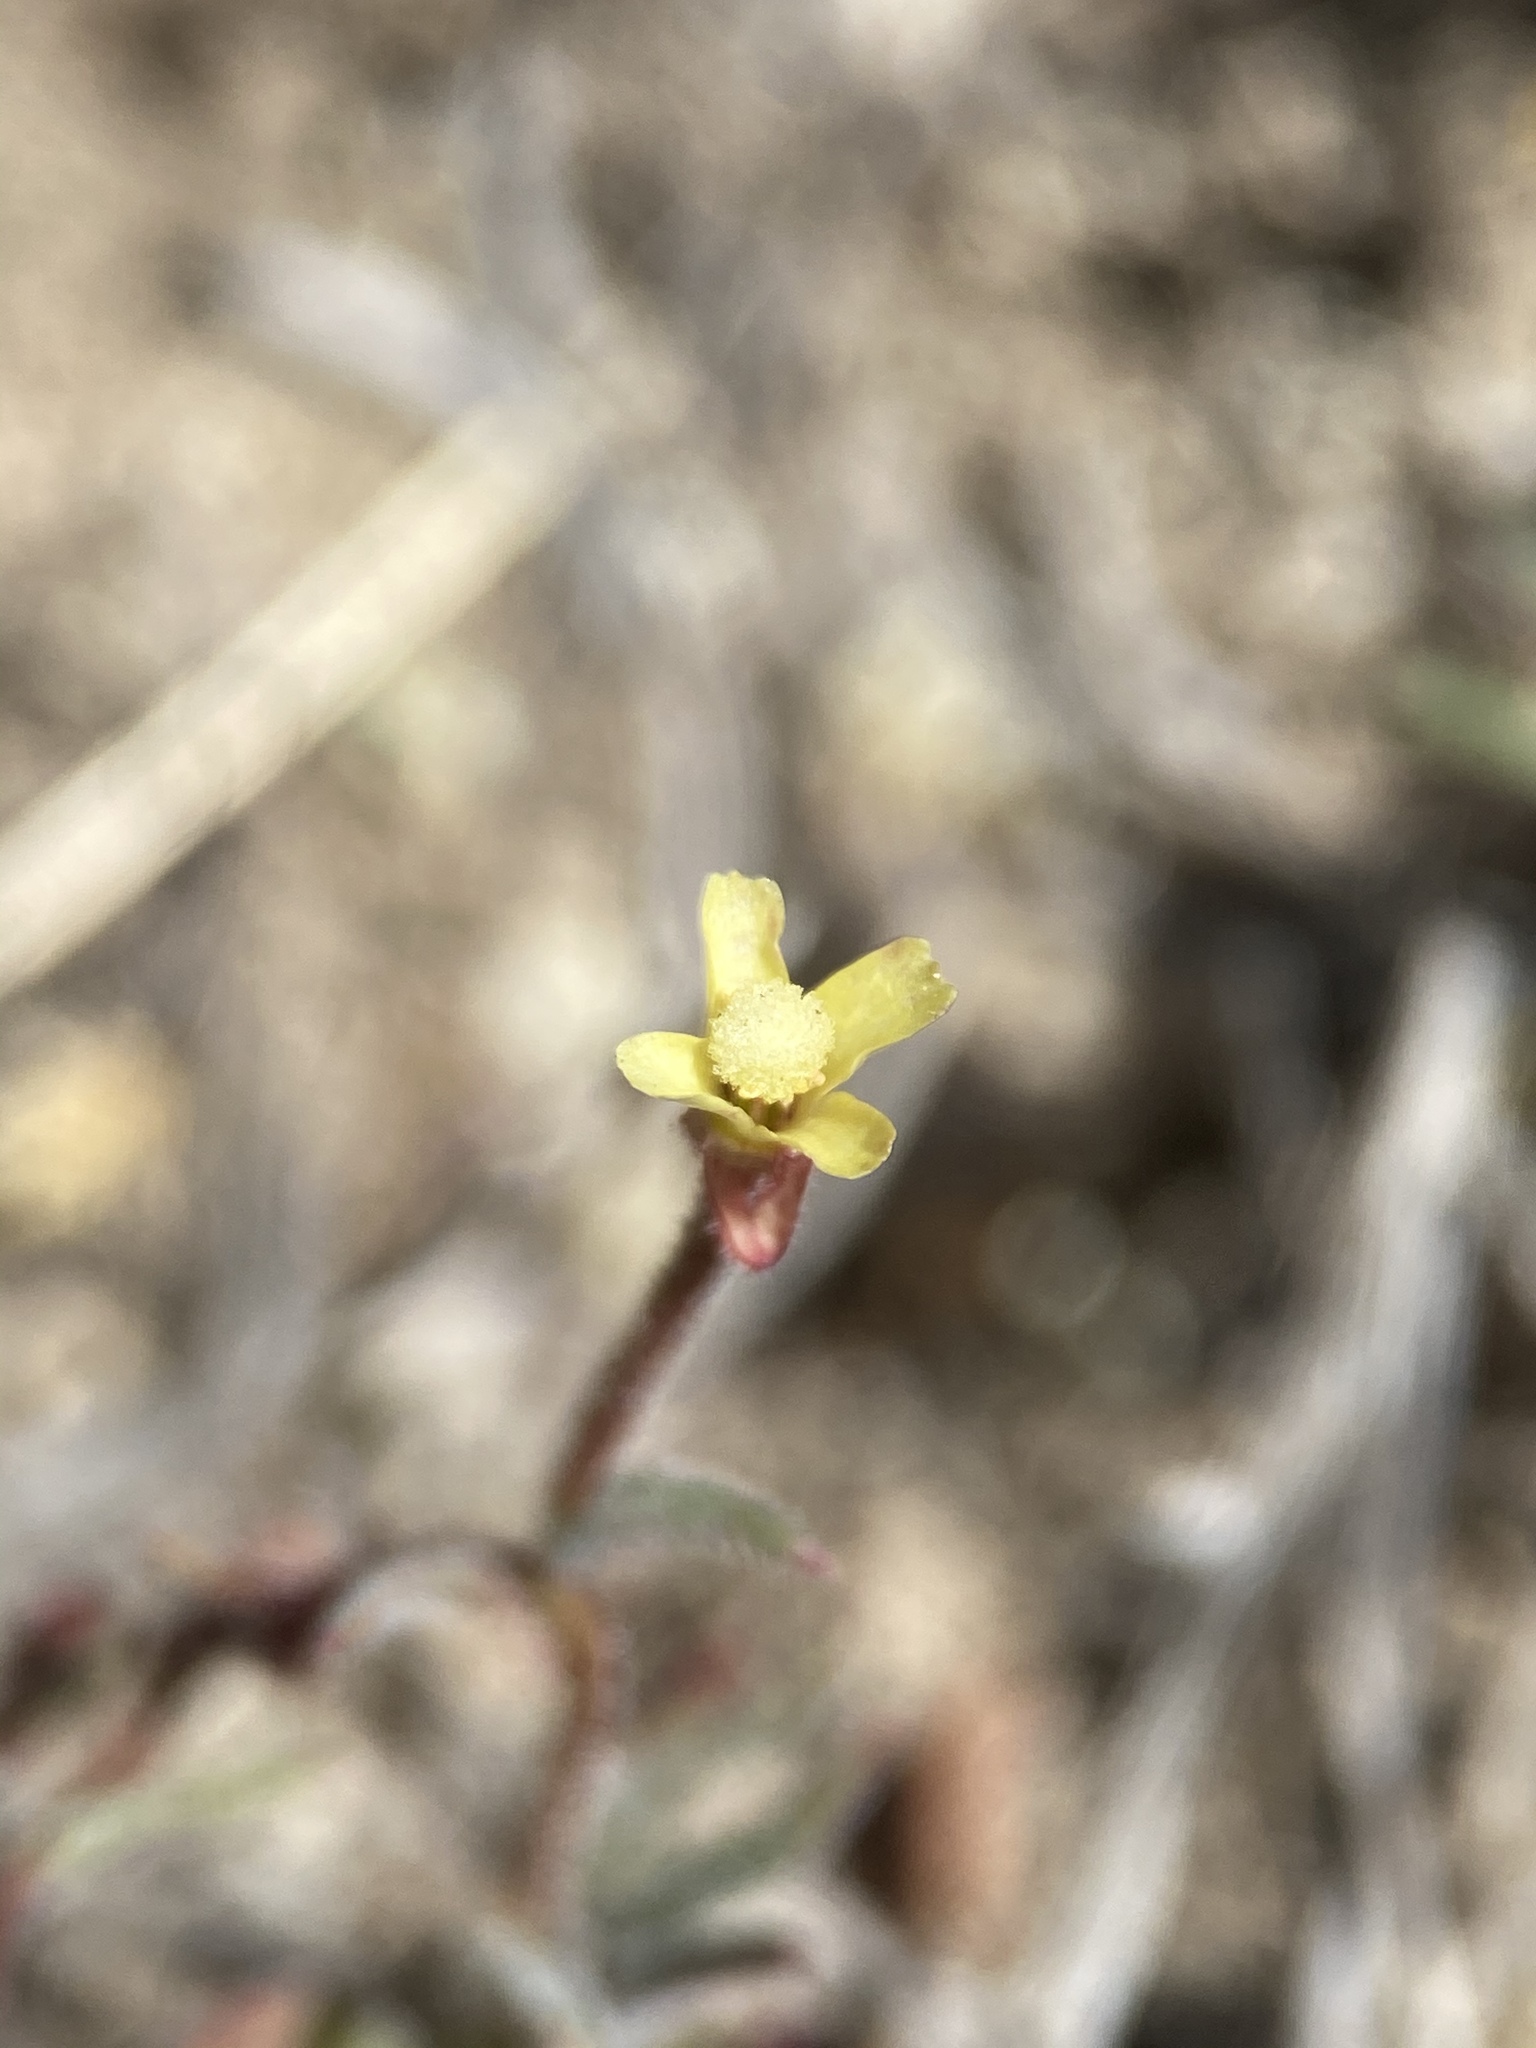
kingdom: Plantae
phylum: Tracheophyta
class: Magnoliopsida
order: Myrtales
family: Onagraceae
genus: Camissonia
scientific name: Camissonia pusilla
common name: Obscure camissonia
